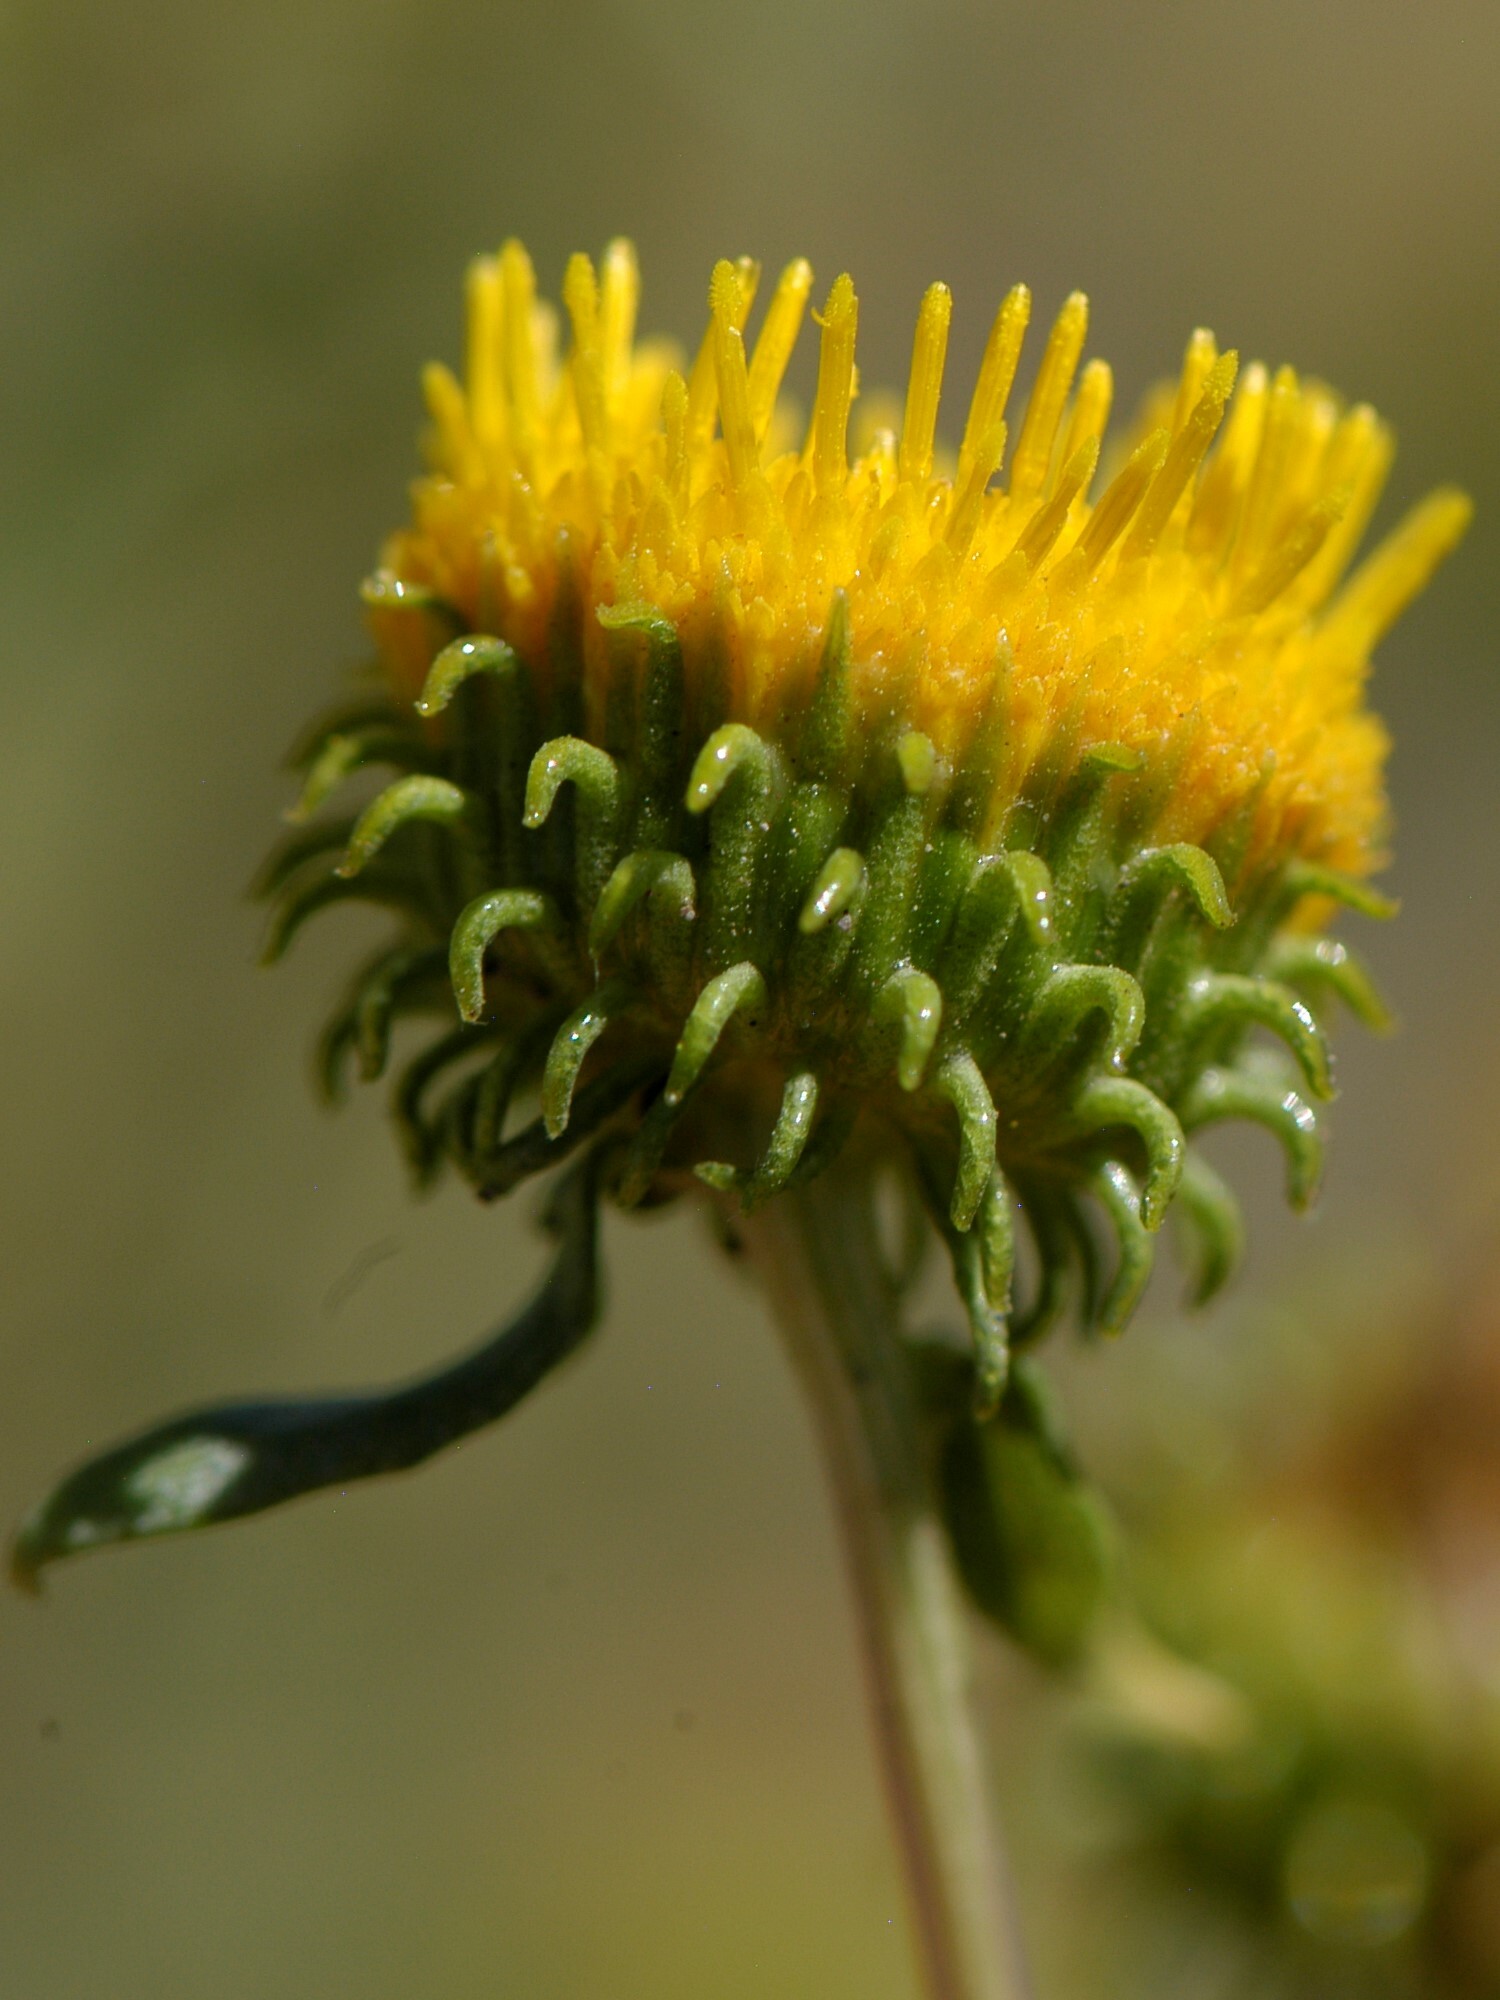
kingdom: Plantae
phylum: Tracheophyta
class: Magnoliopsida
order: Asterales
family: Asteraceae
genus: Grindelia
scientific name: Grindelia nuda
